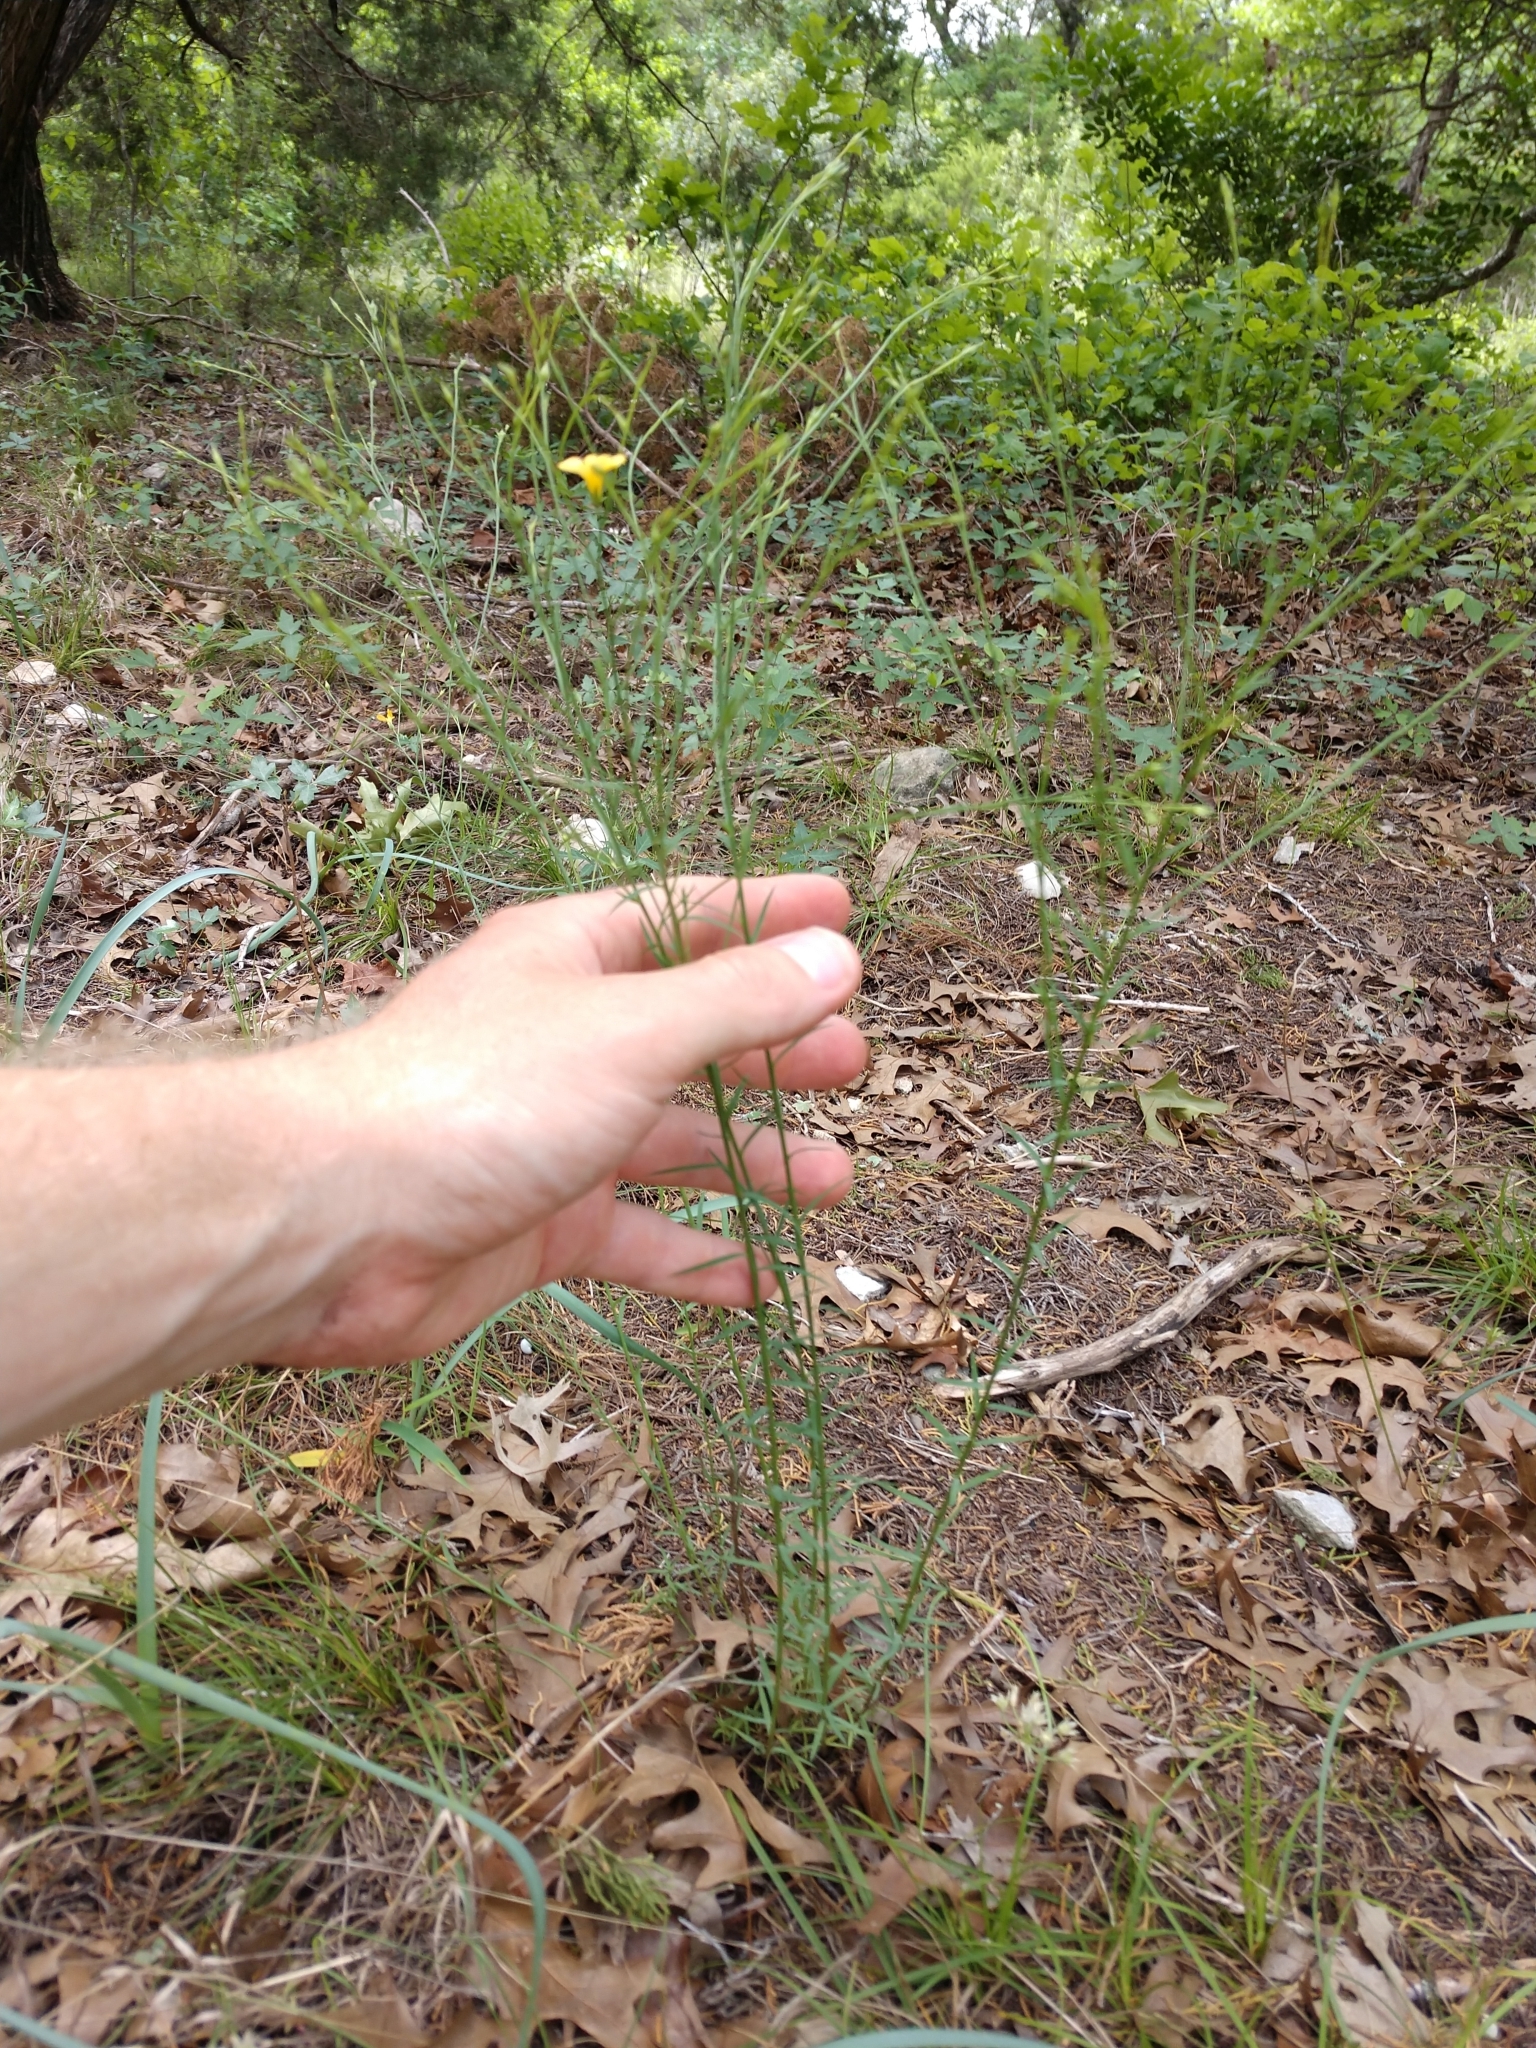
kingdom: Plantae
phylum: Tracheophyta
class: Magnoliopsida
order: Malpighiales
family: Linaceae
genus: Linum
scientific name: Linum rupestre
